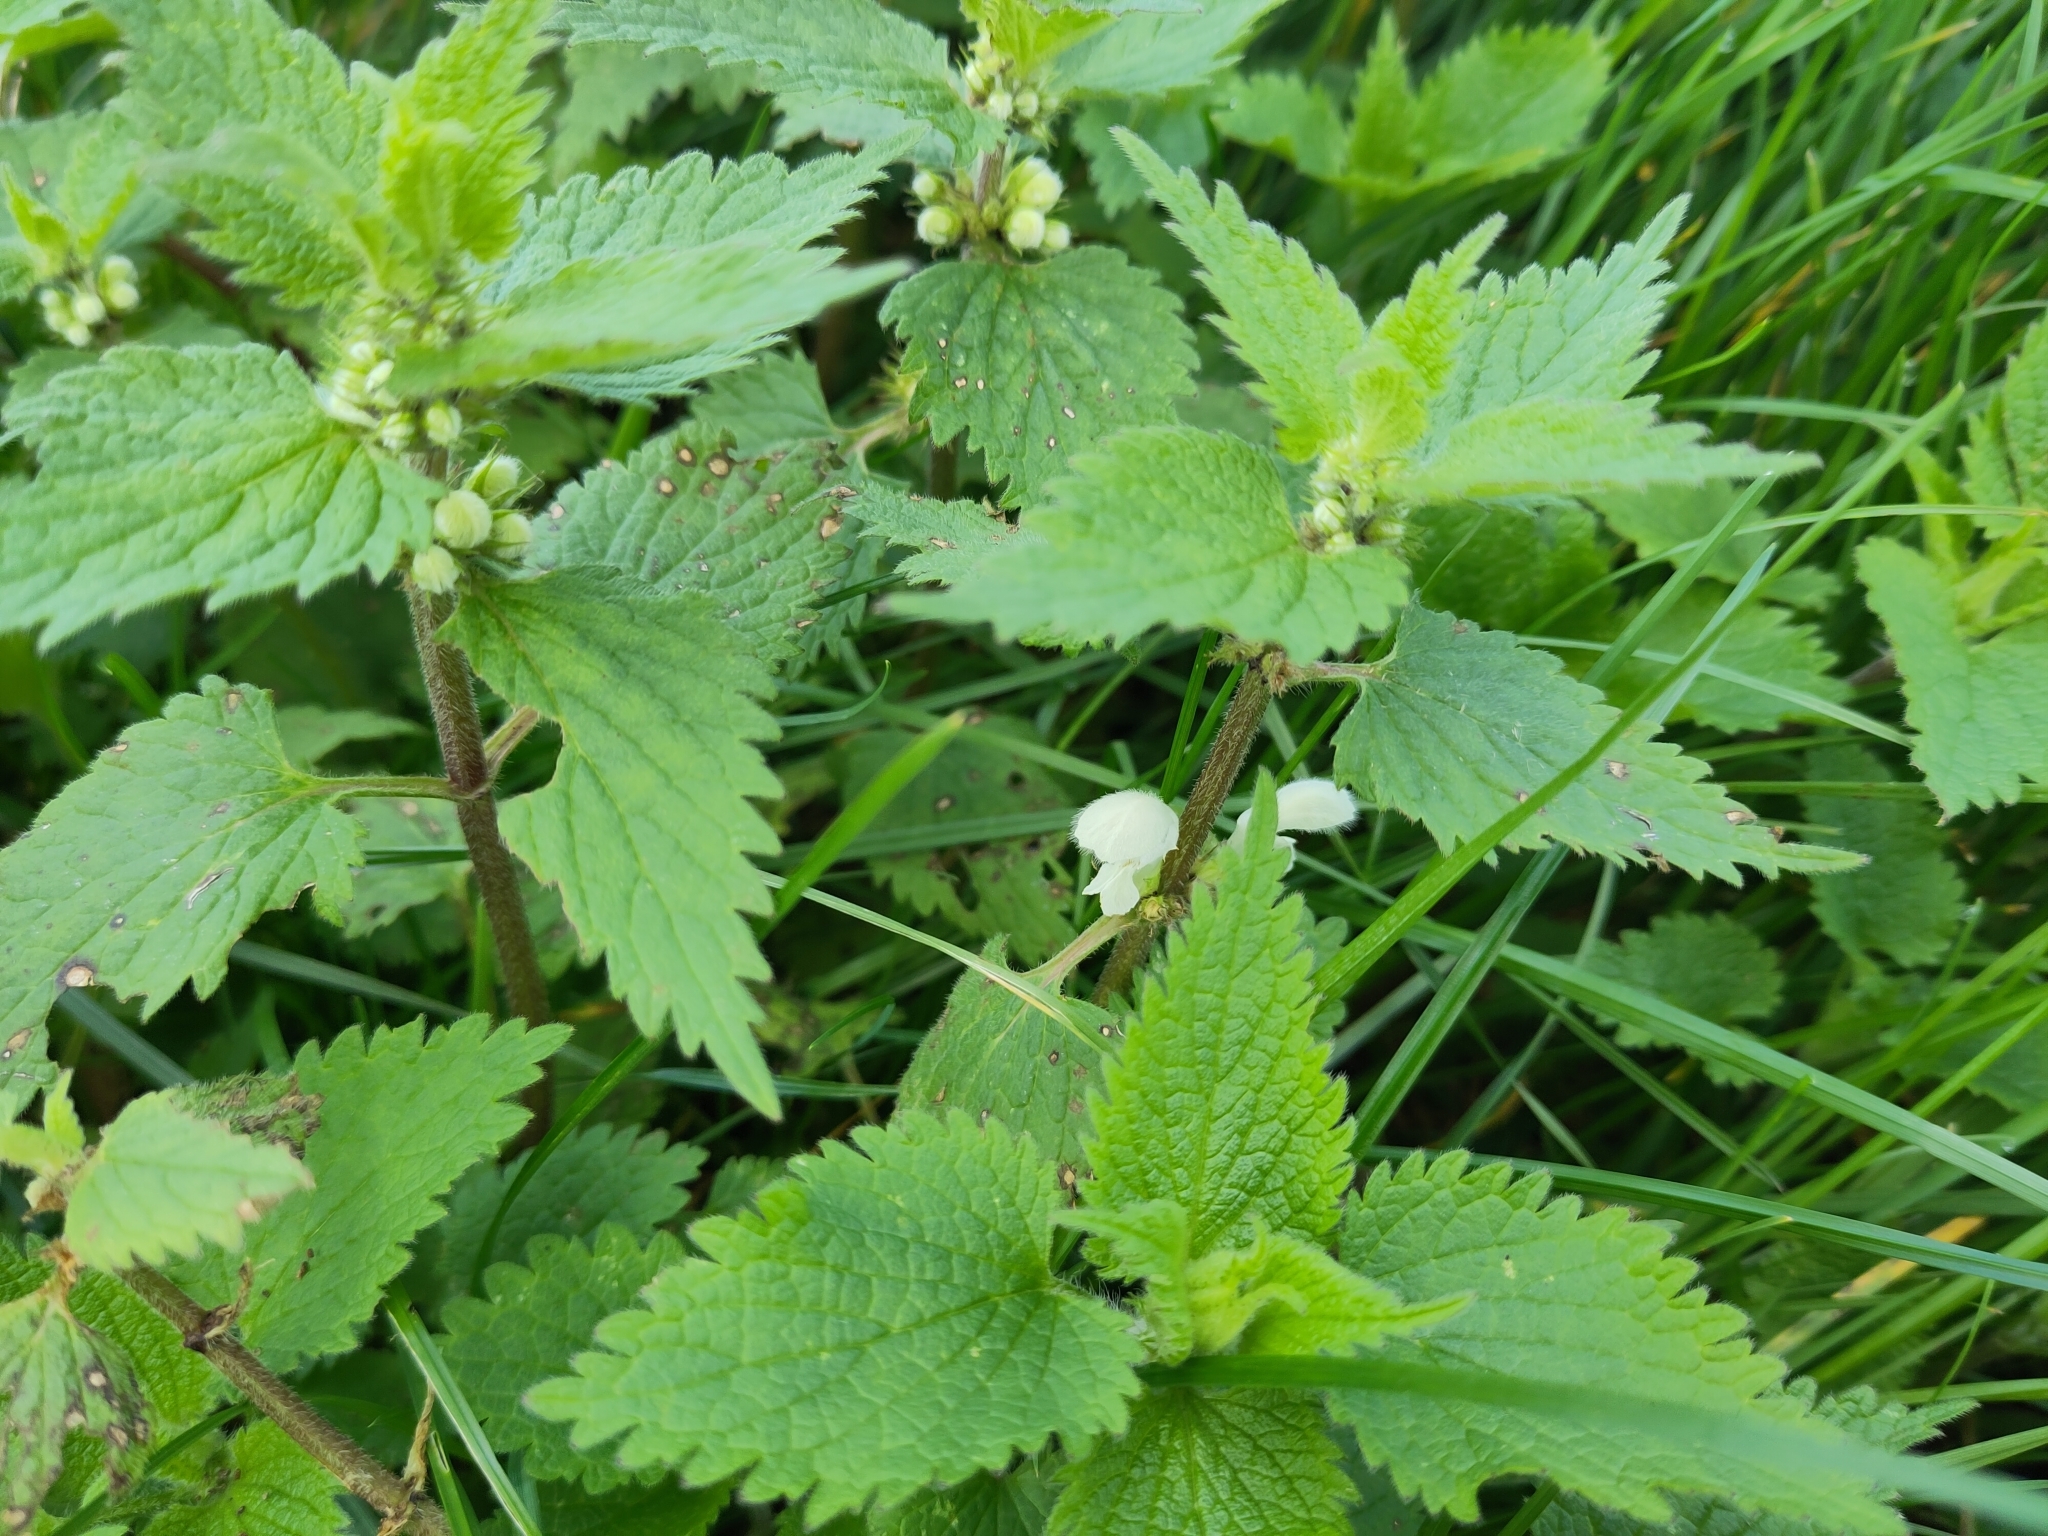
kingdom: Plantae
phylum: Tracheophyta
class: Magnoliopsida
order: Lamiales
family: Lamiaceae
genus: Lamium
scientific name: Lamium album
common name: White dead-nettle
